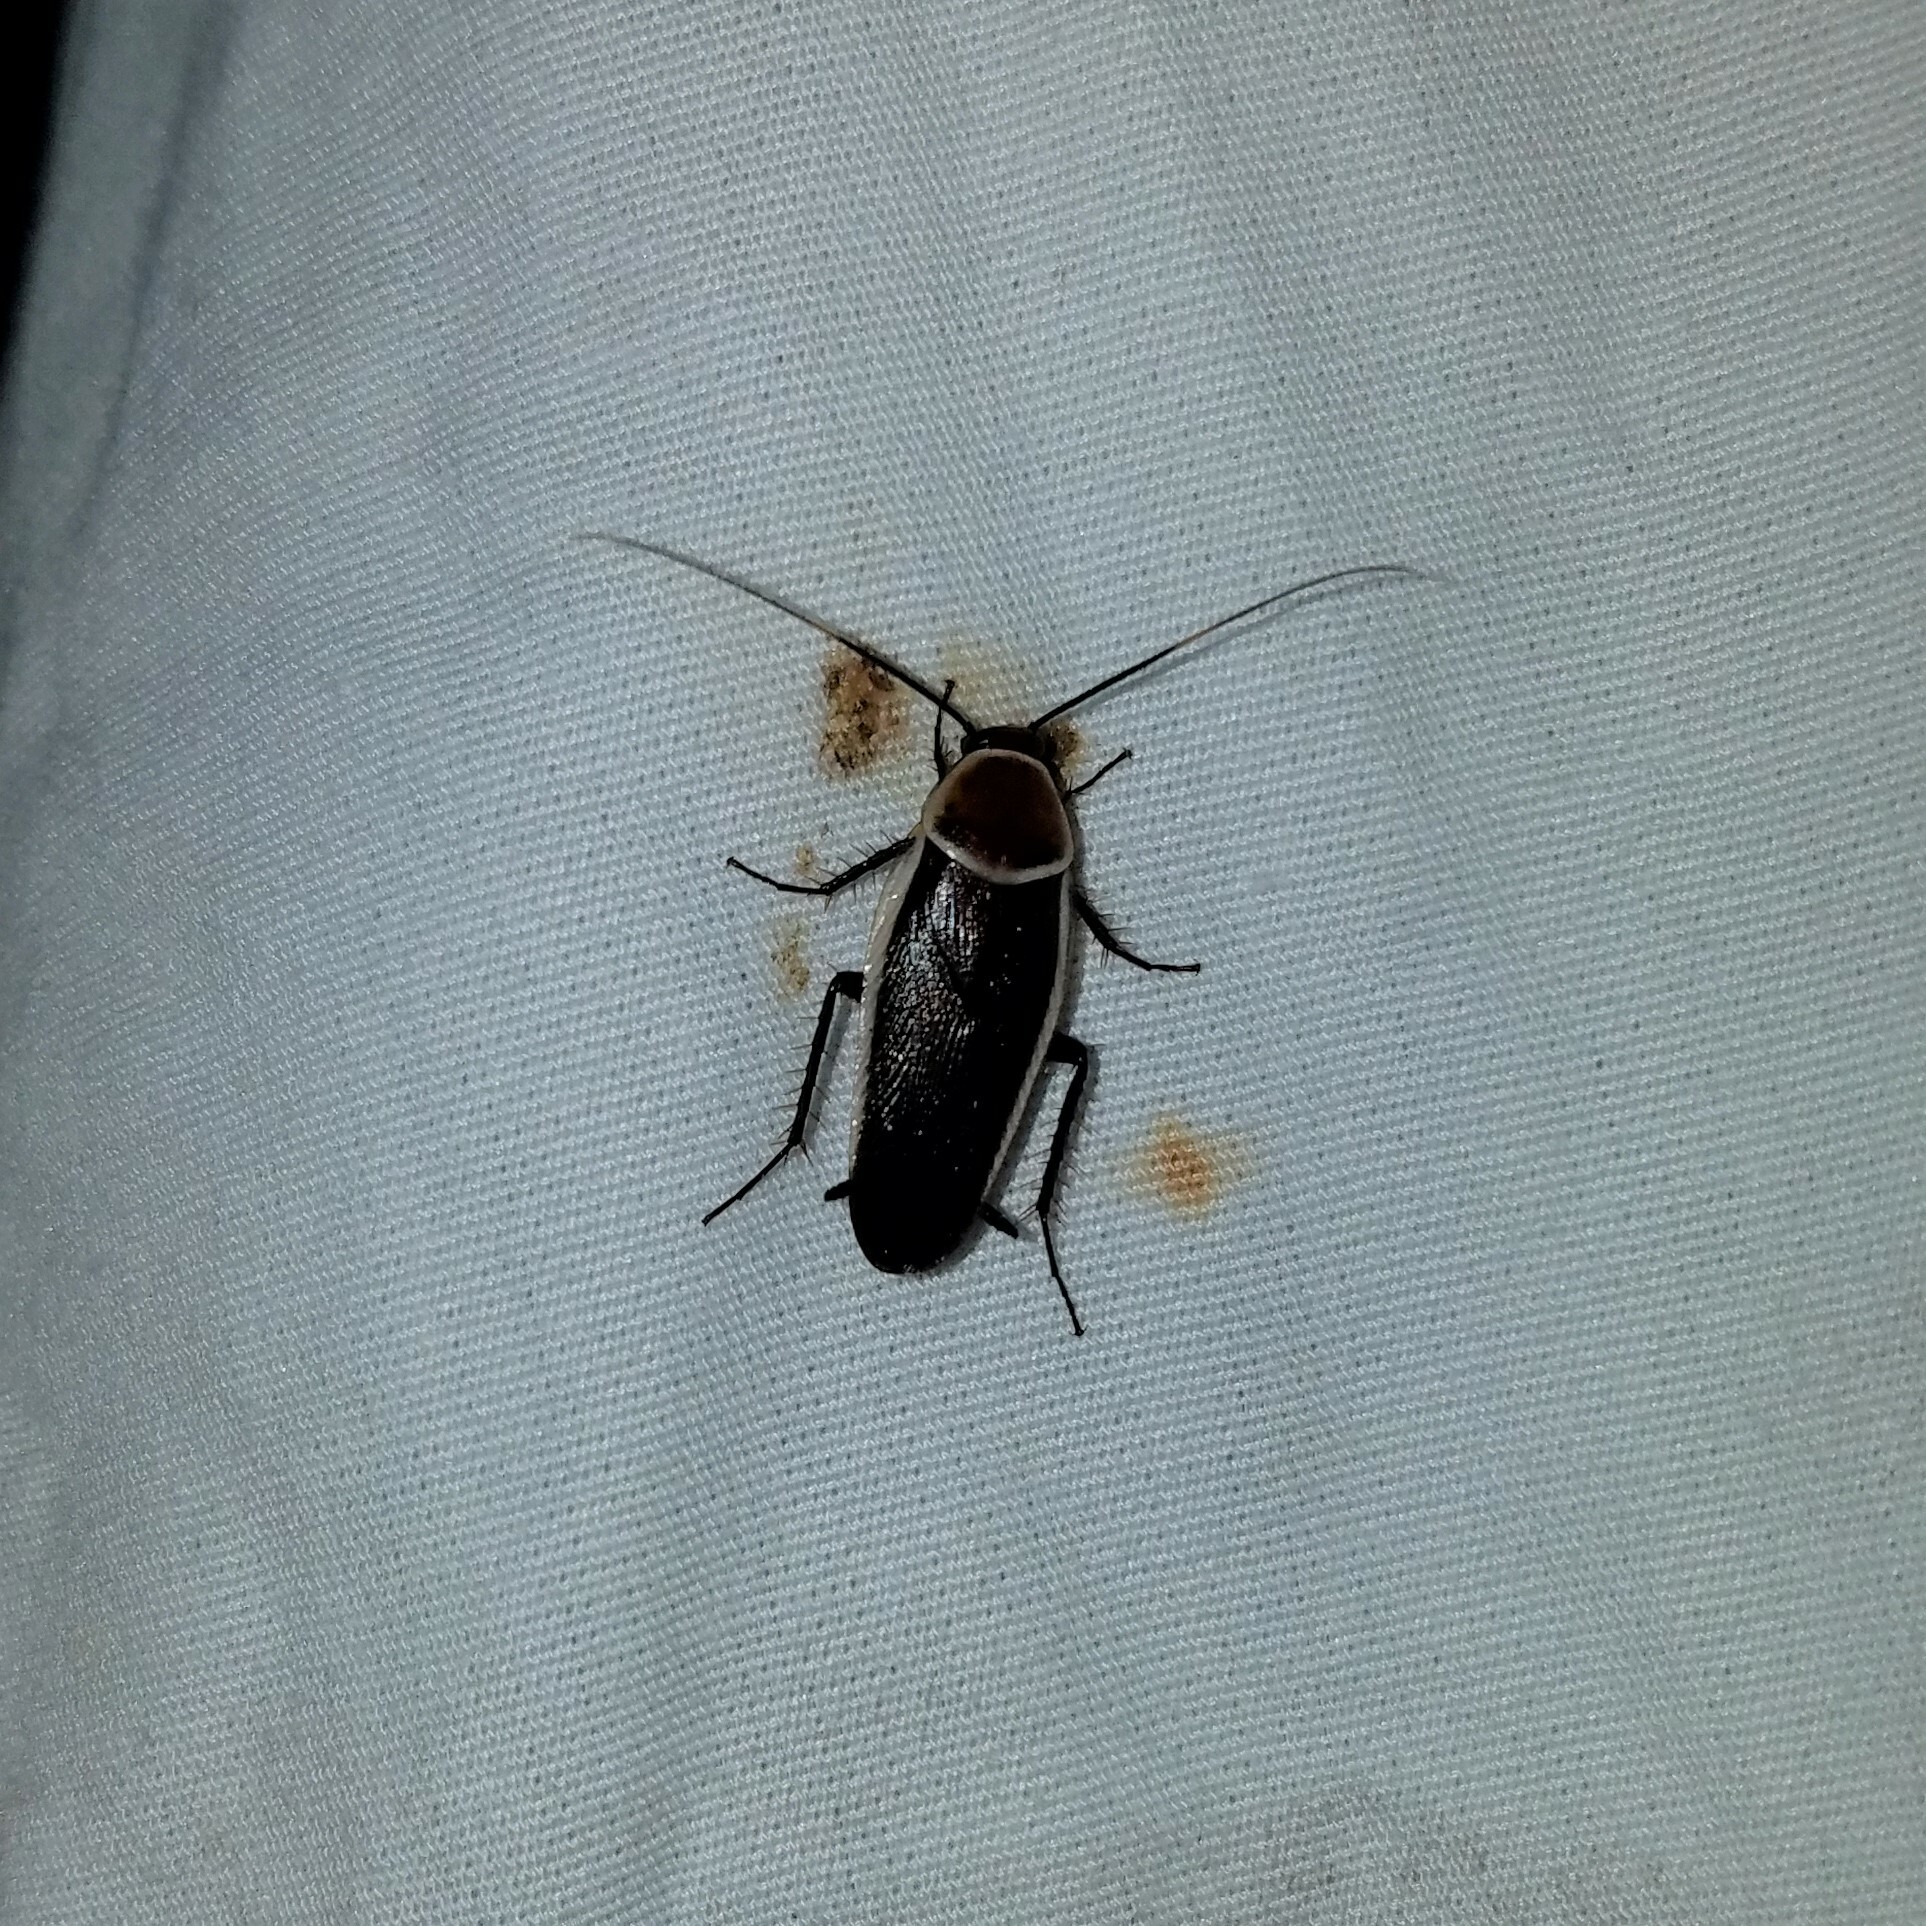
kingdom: Animalia
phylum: Arthropoda
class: Insecta
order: Blattodea
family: Ectobiidae
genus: Pseudomops
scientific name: Pseudomops septentrionalis
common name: Pale-bordered field cockroach
